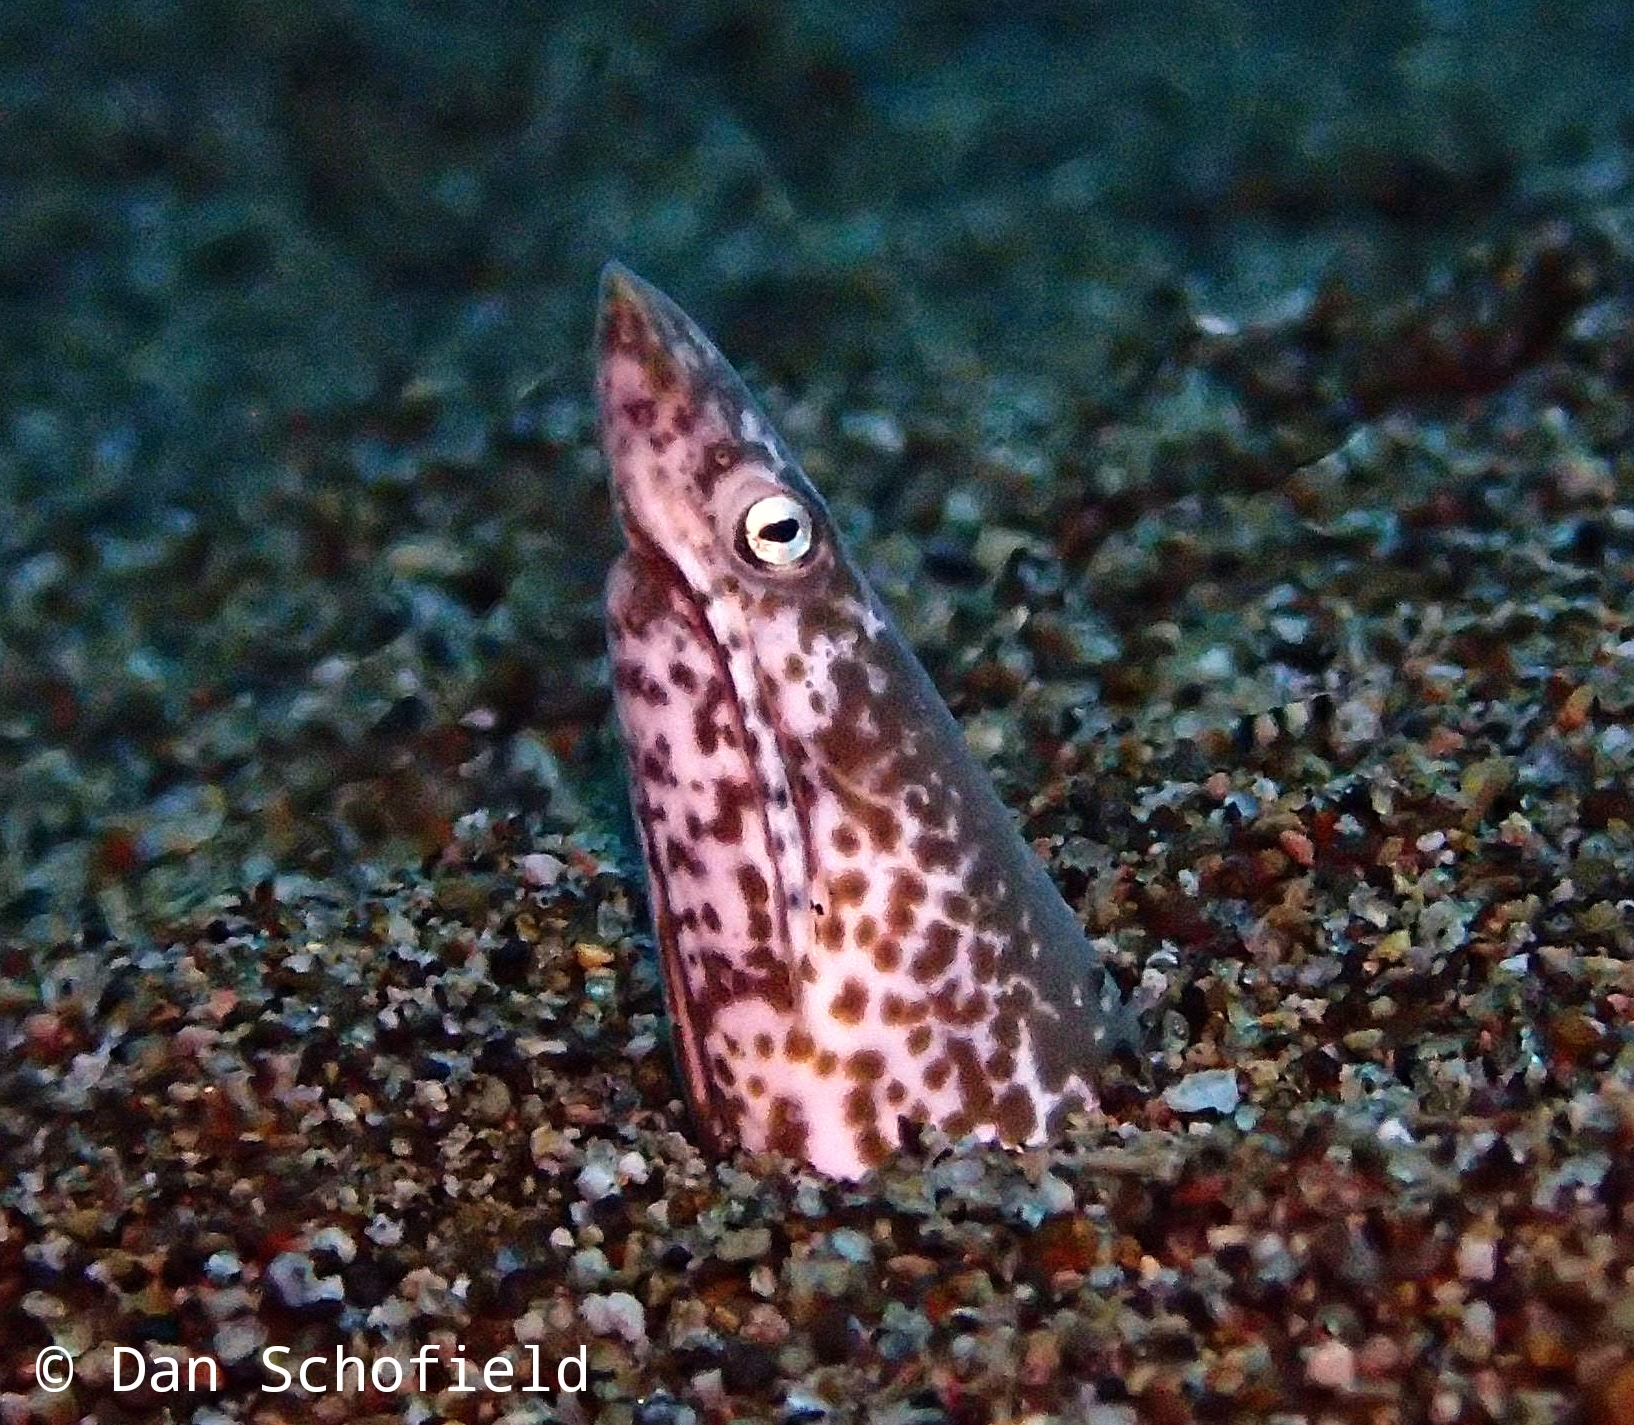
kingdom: Animalia
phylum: Chordata
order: Anguilliformes
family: Ophichthidae
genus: Apterichtus
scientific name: Apterichtus klazingai
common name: Sharpsnout snake eel
